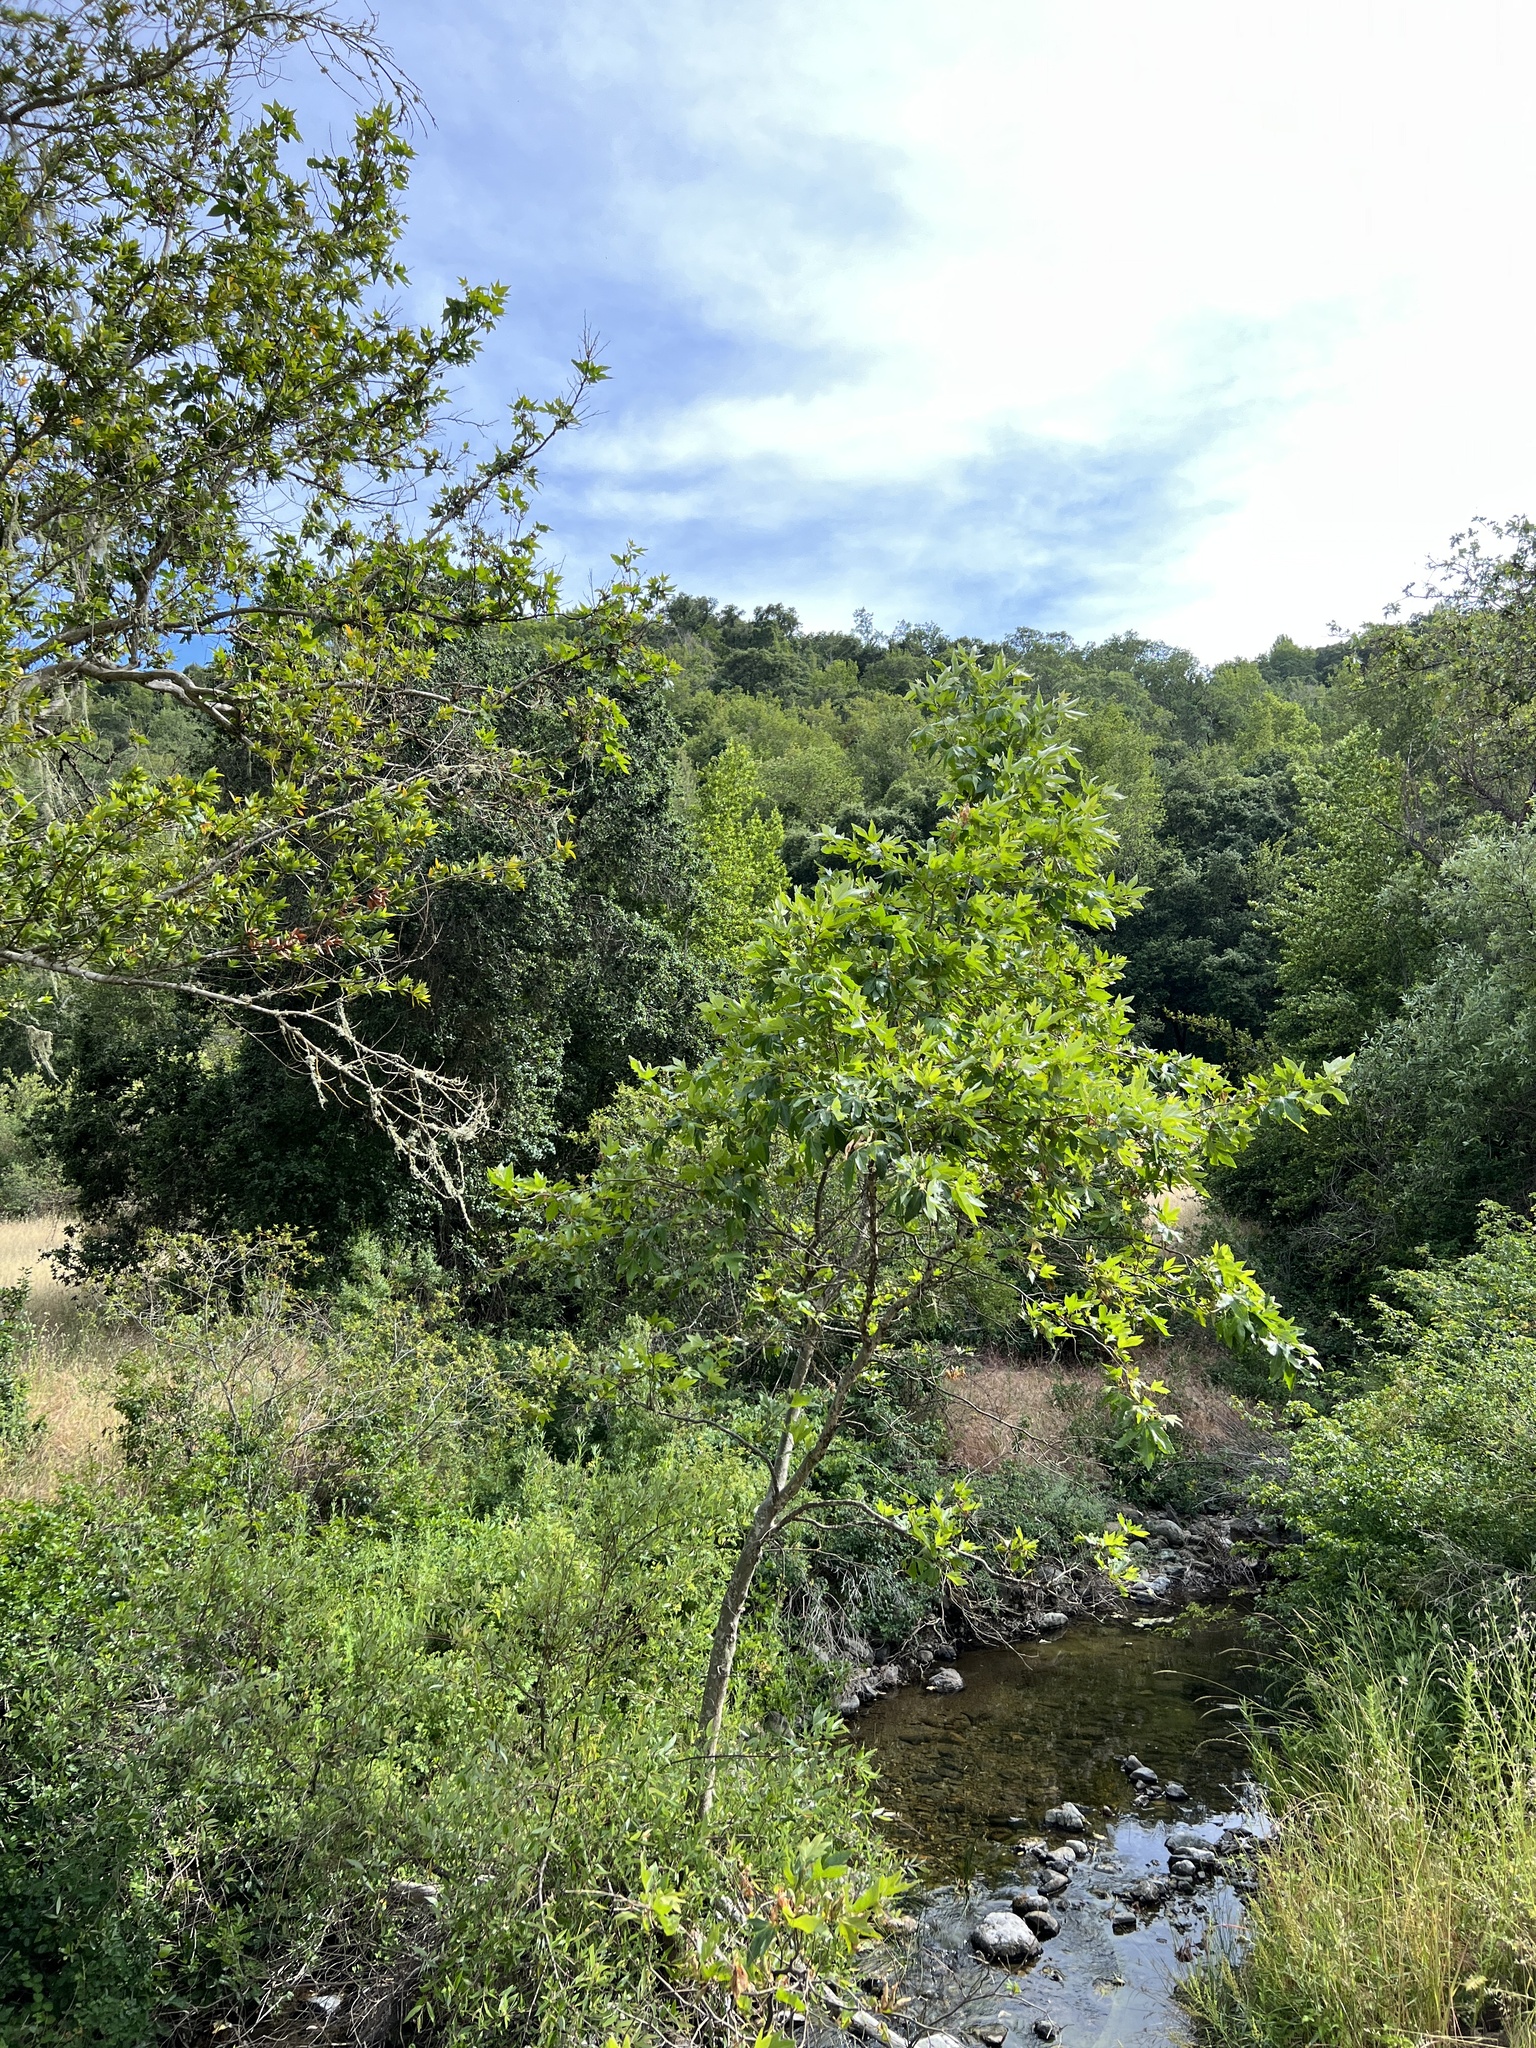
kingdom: Plantae
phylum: Tracheophyta
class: Magnoliopsida
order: Proteales
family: Platanaceae
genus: Platanus
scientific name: Platanus racemosa
